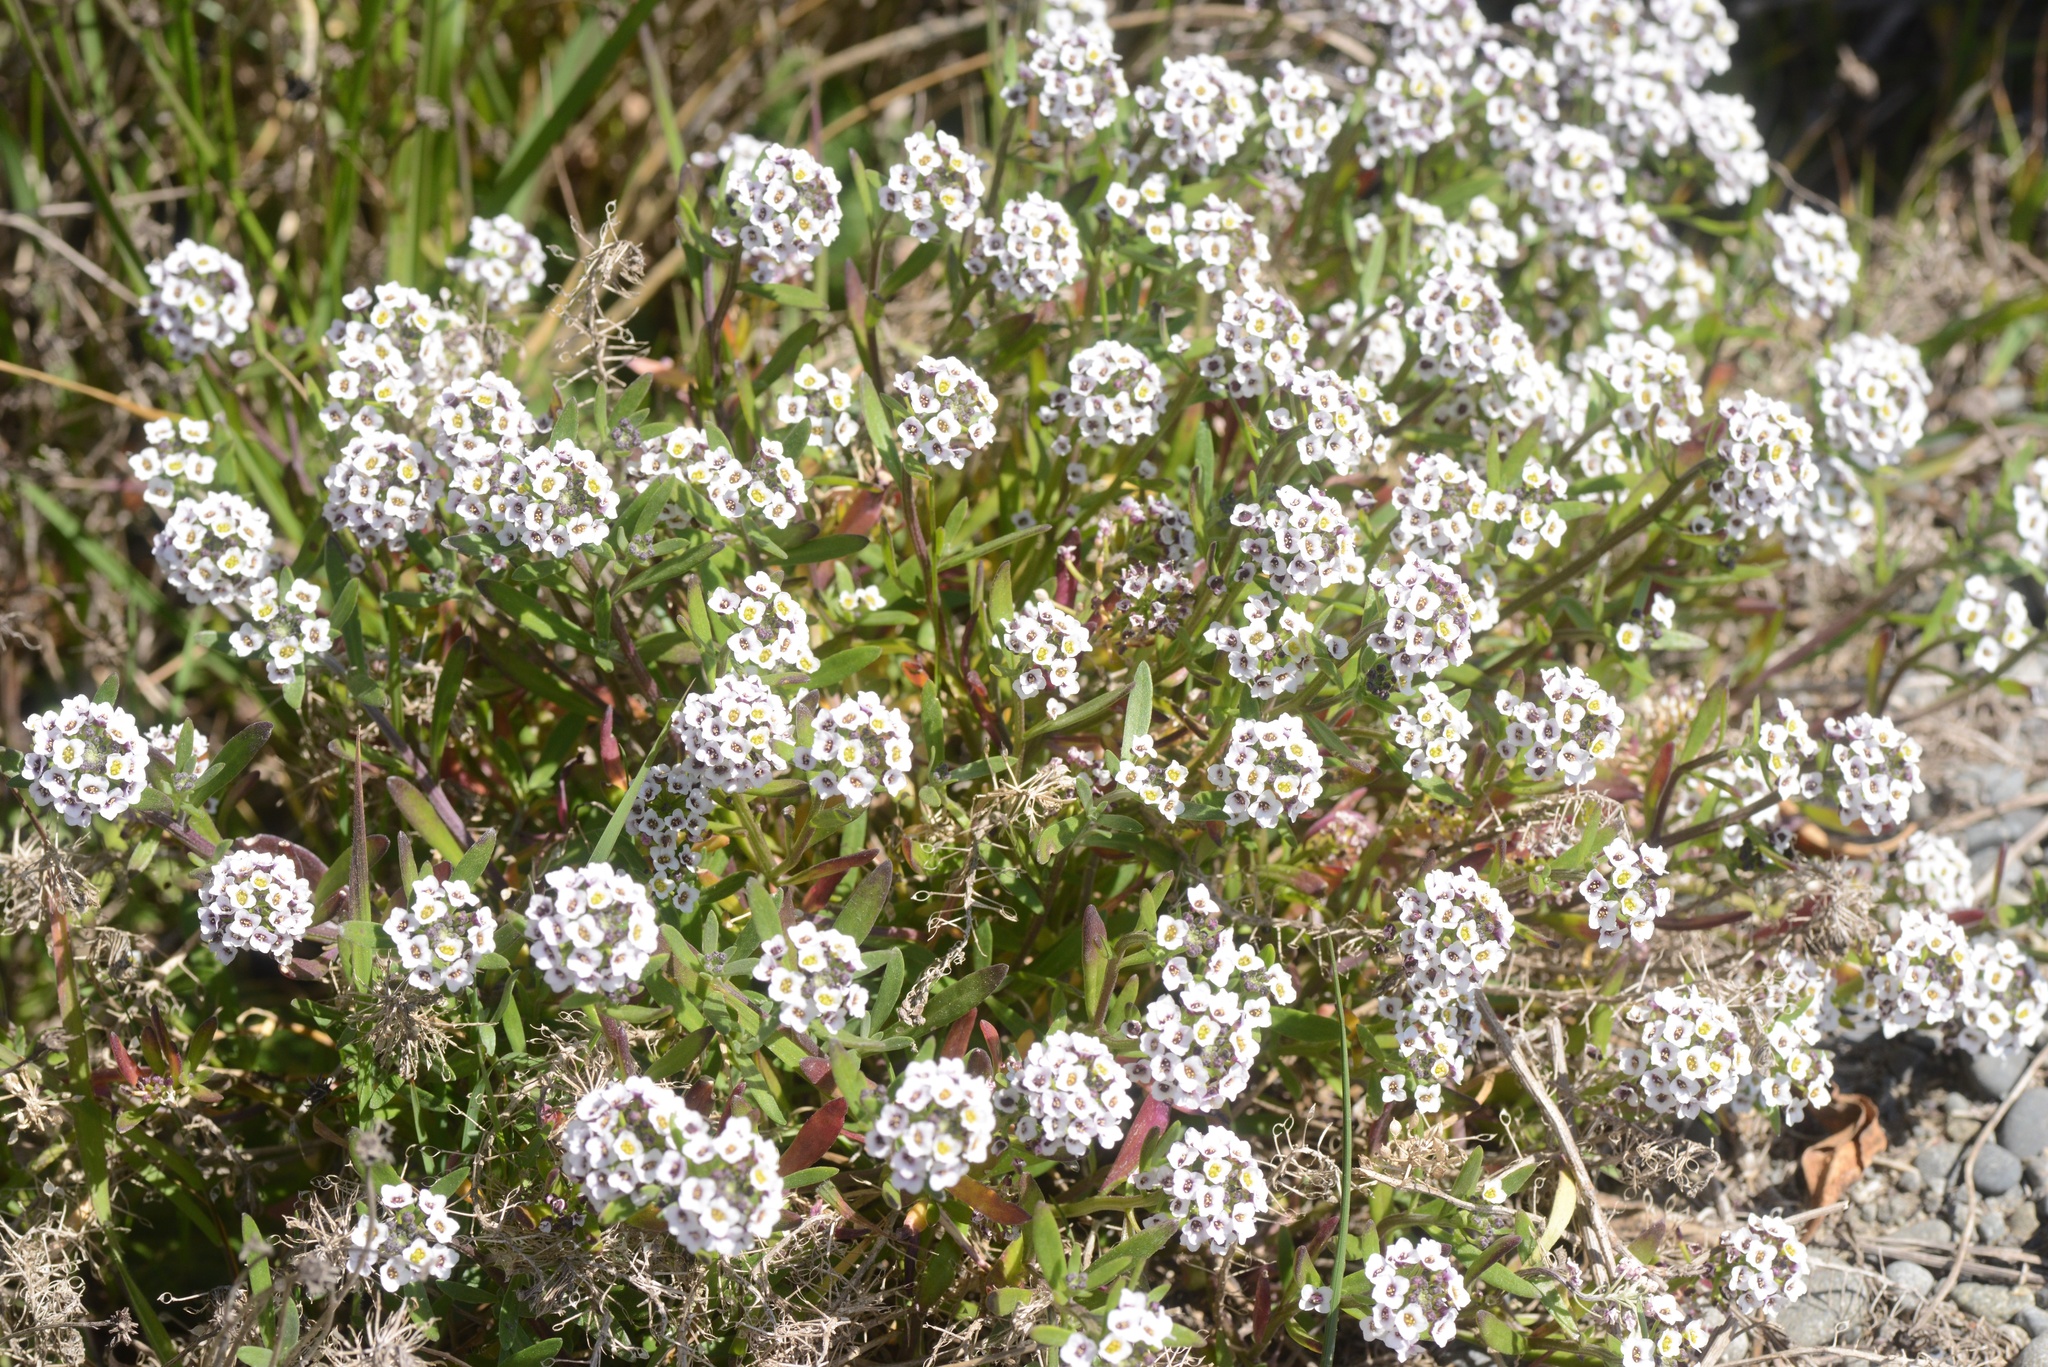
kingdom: Plantae
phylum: Tracheophyta
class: Magnoliopsida
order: Brassicales
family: Brassicaceae
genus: Lobularia
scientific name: Lobularia maritima
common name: Sweet alison
